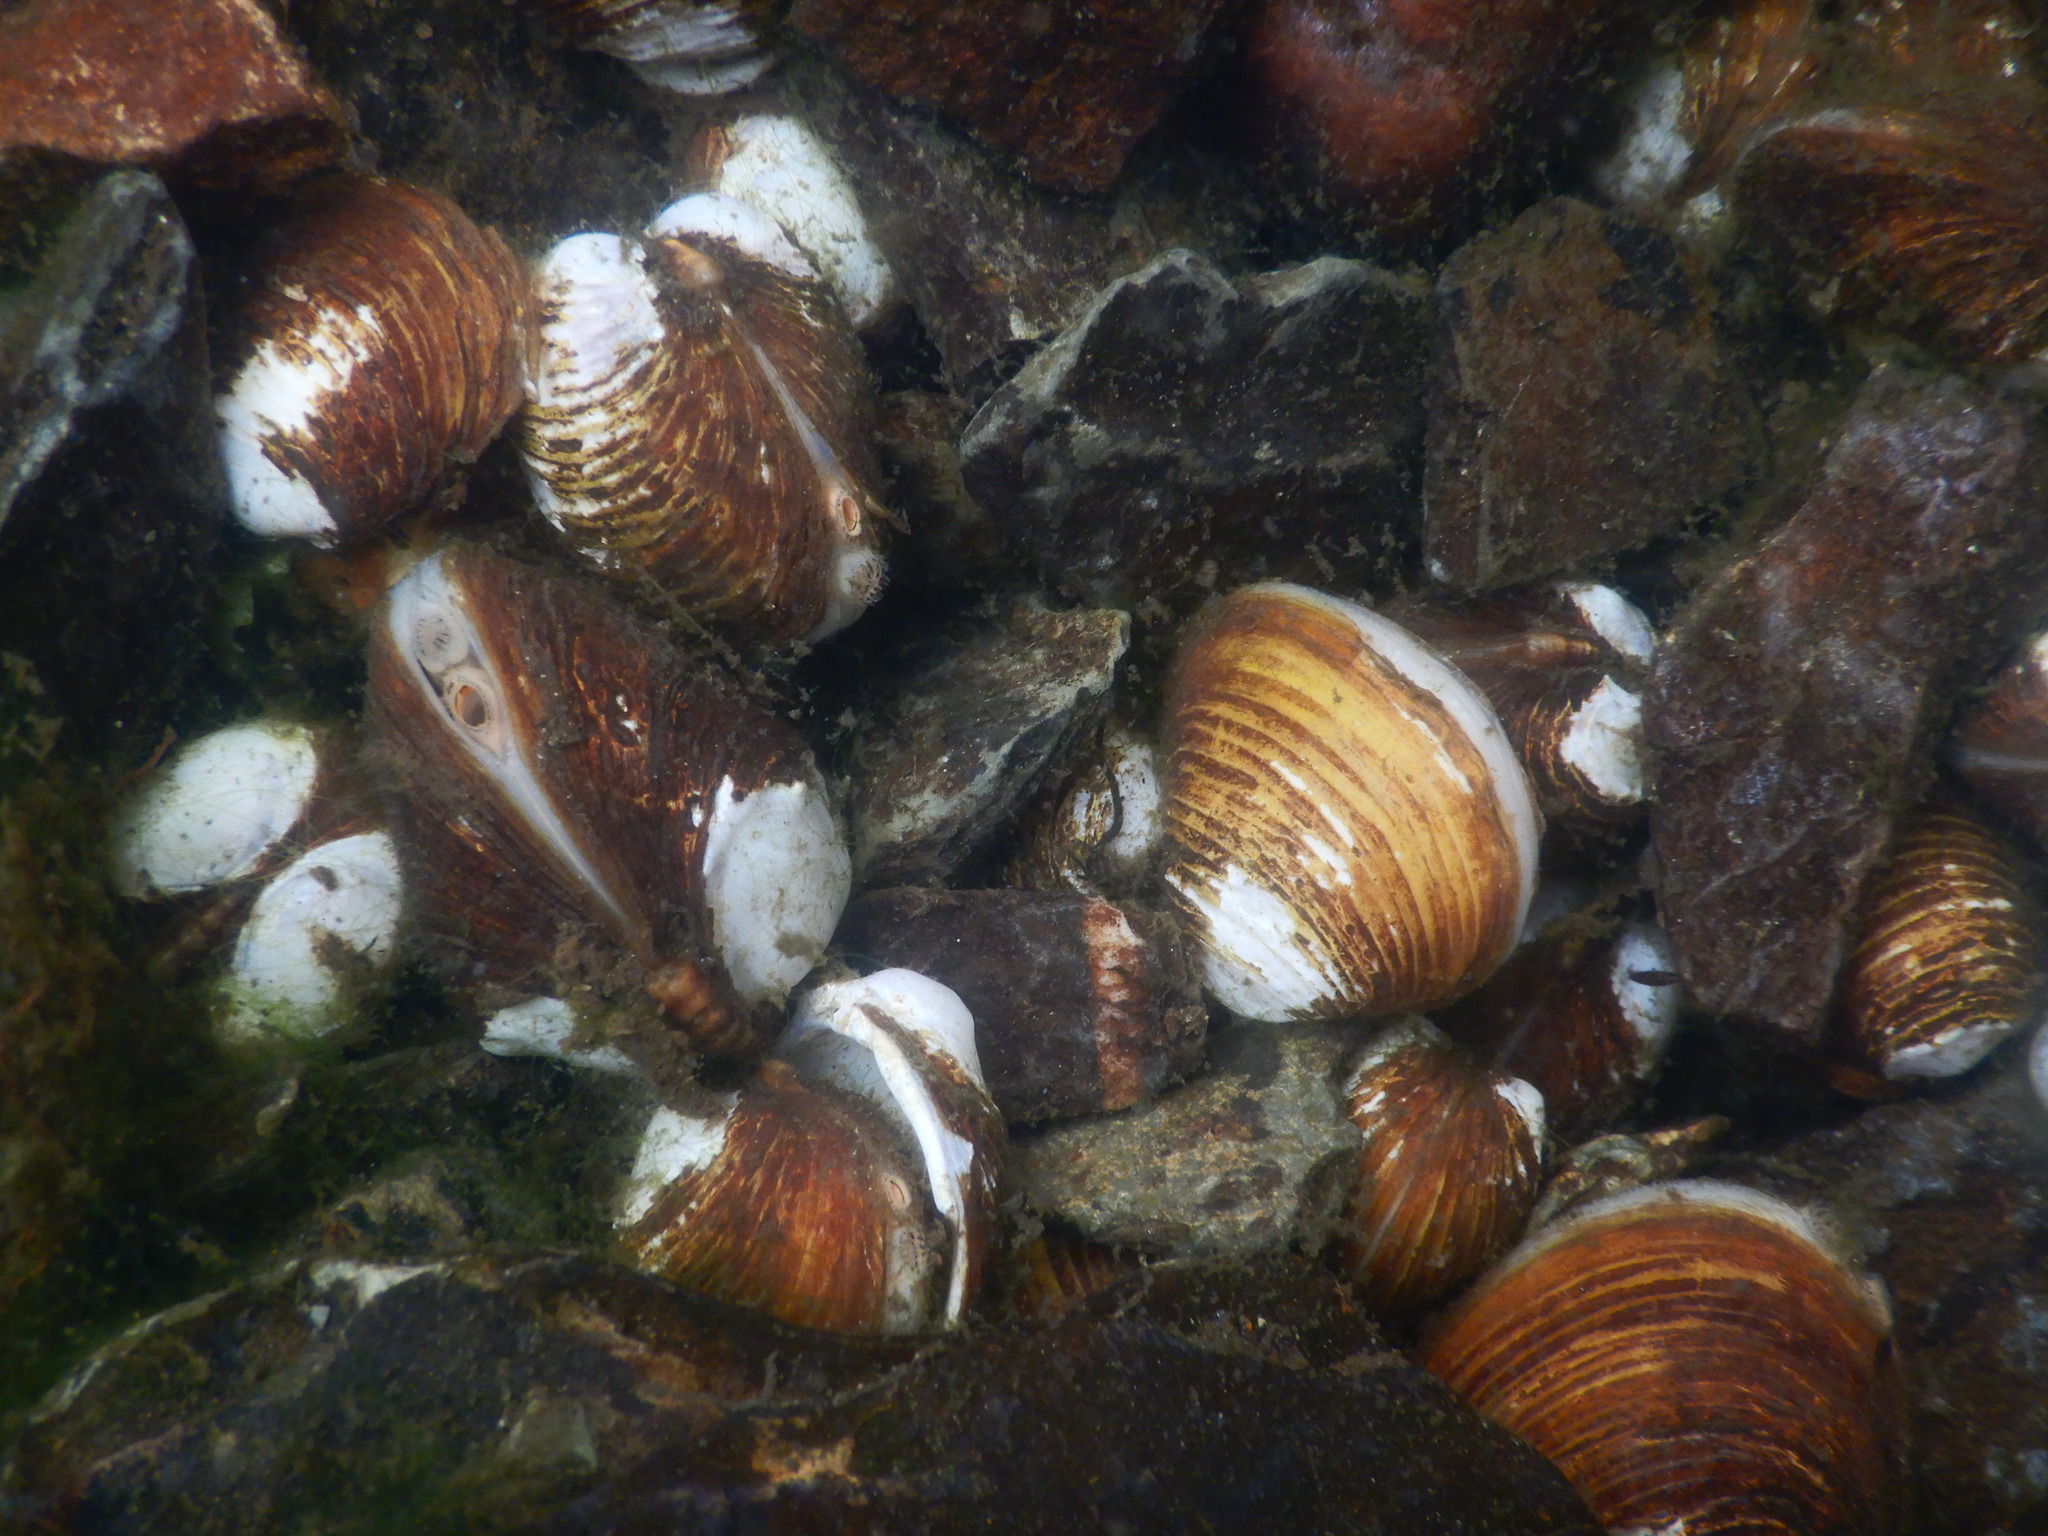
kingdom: Animalia
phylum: Mollusca
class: Bivalvia
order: Venerida
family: Cyrenidae
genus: Corbicula
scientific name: Corbicula fluminea
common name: Asian clam
